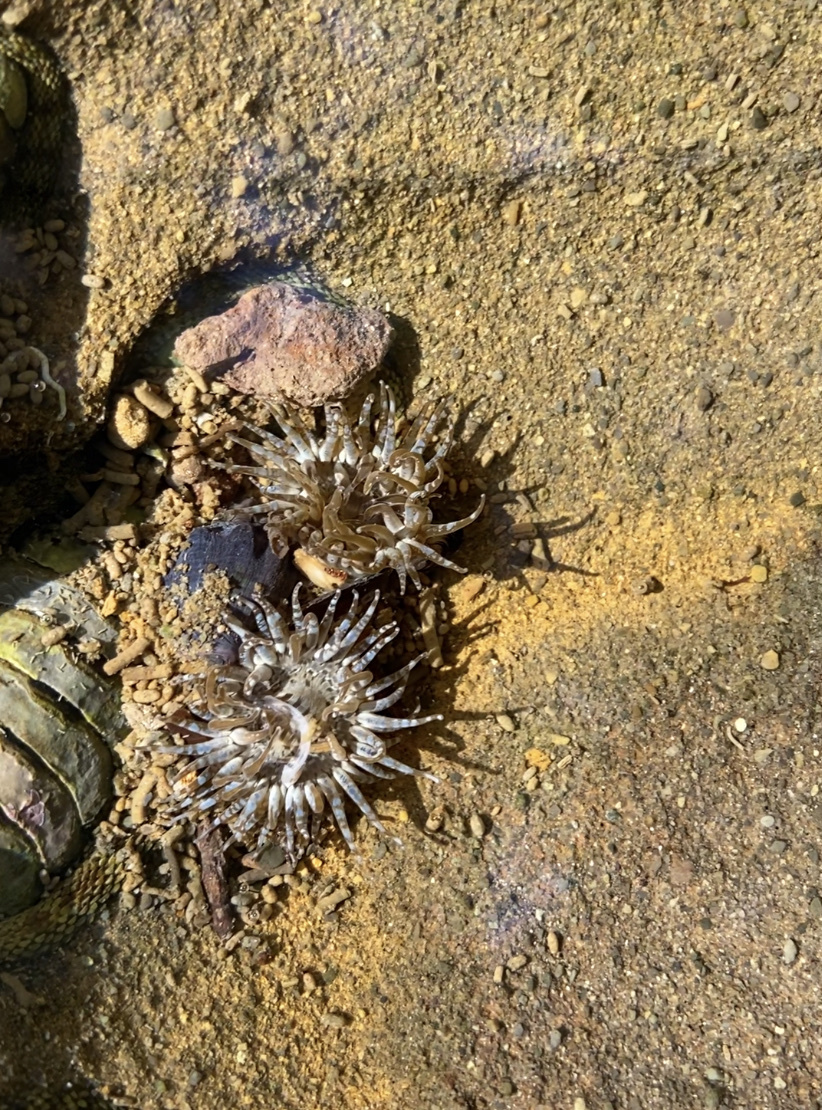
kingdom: Animalia
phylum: Cnidaria
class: Anthozoa
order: Actiniaria
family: Actiniidae
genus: Anthopleura
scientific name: Anthopleura hermaphroditica
